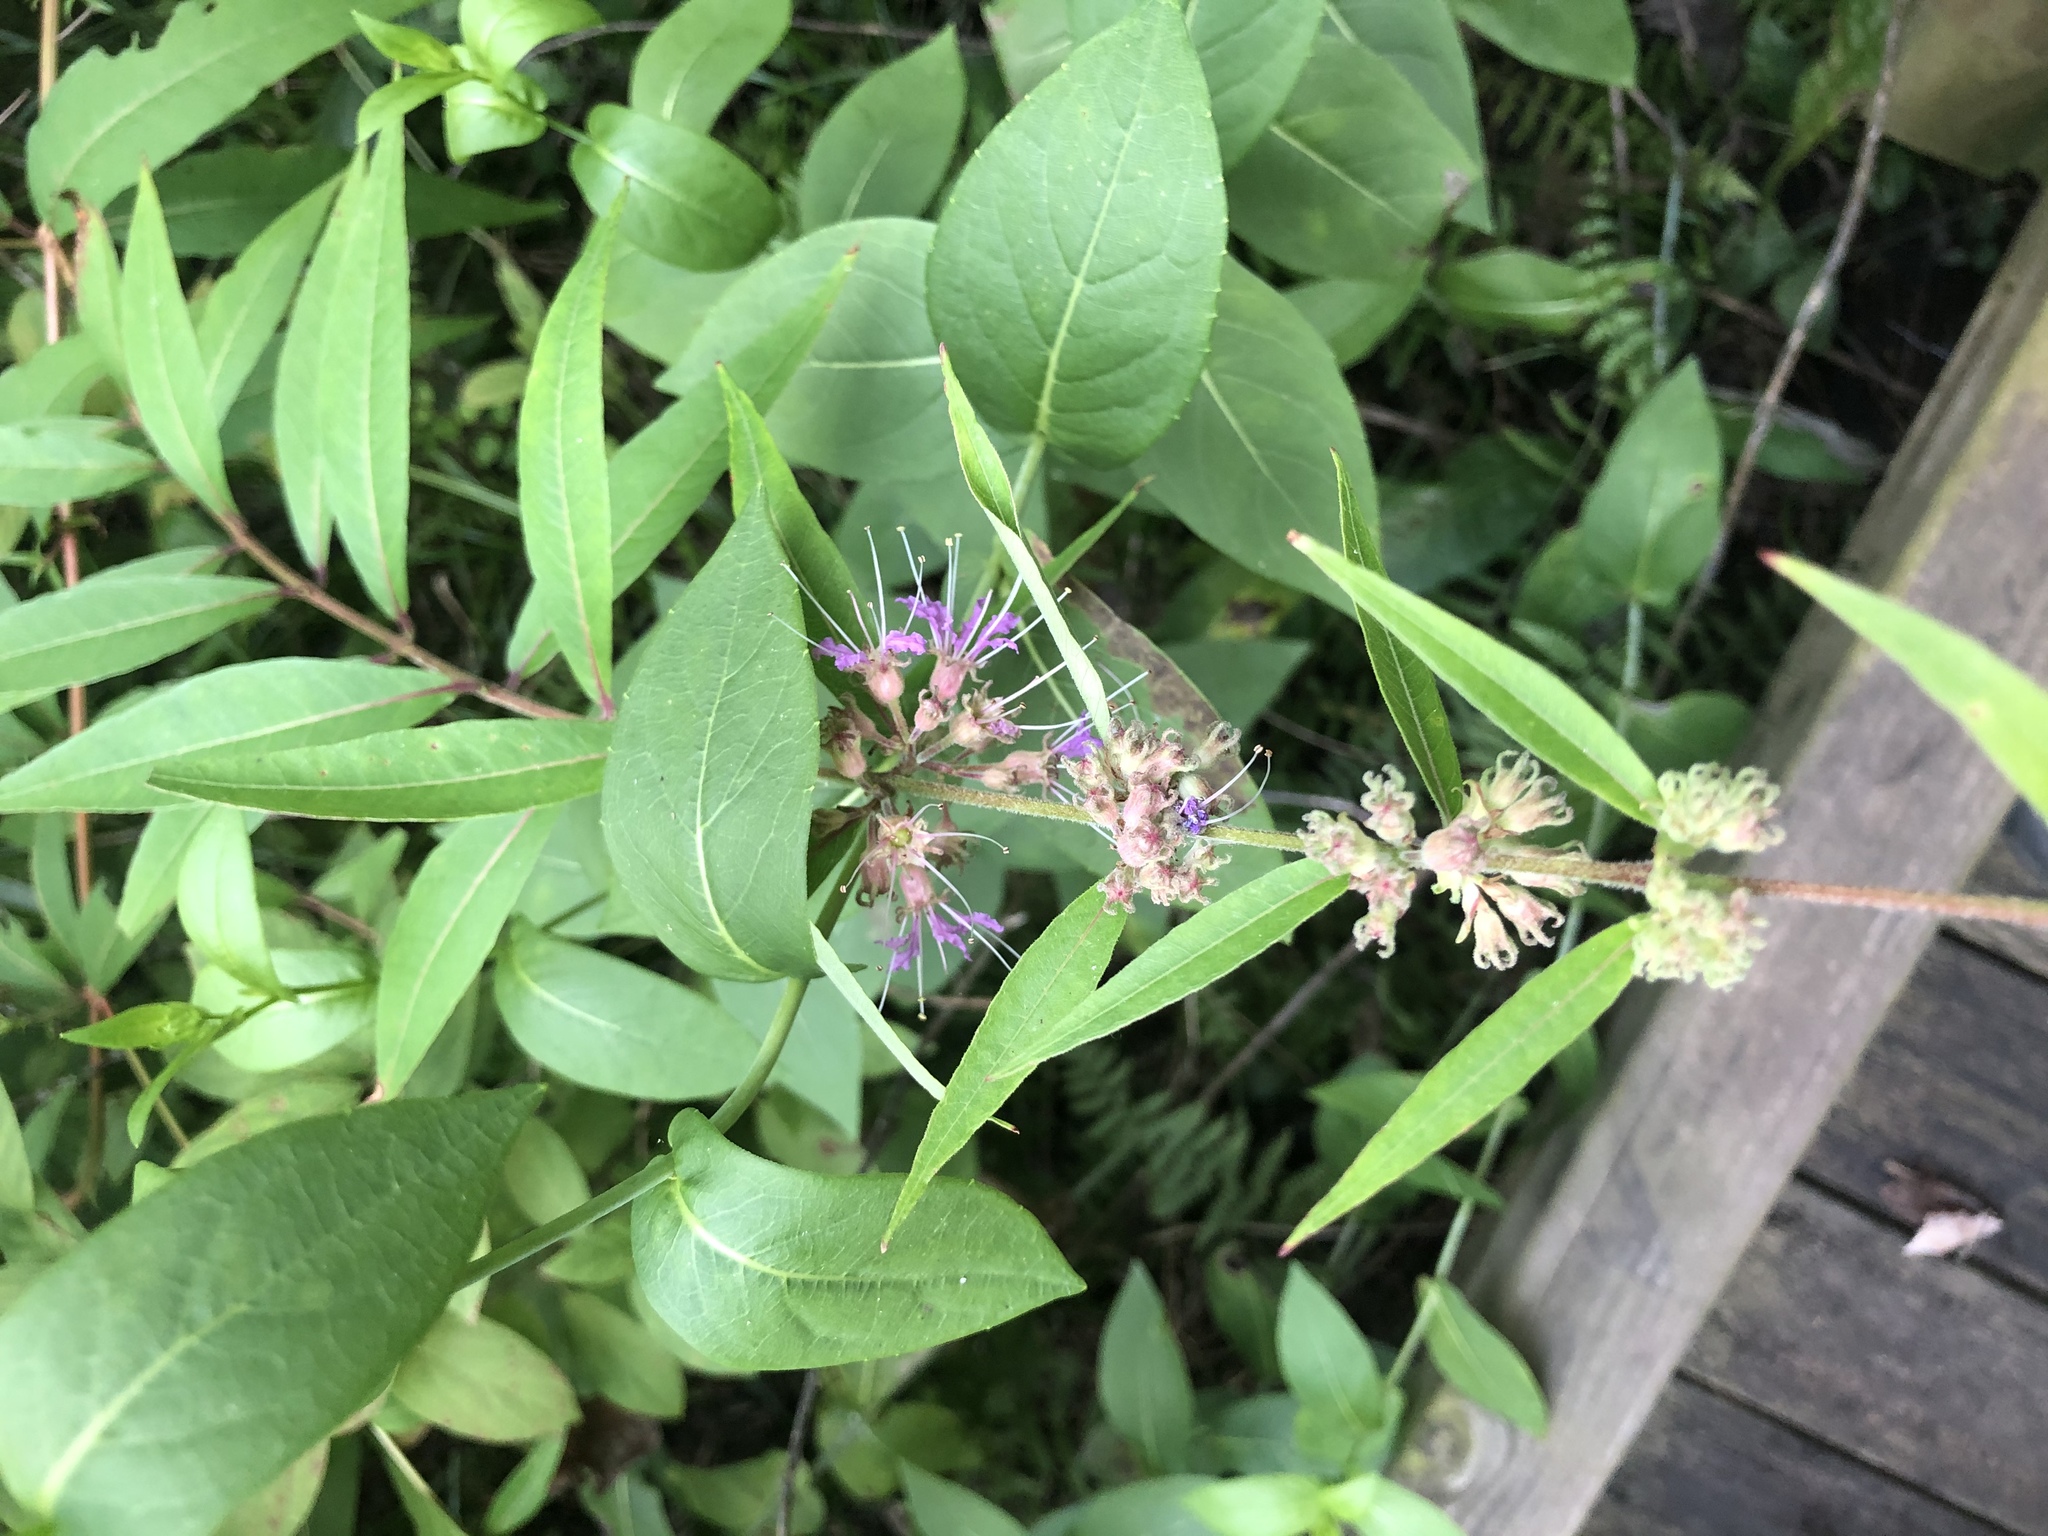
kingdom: Plantae
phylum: Tracheophyta
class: Magnoliopsida
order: Myrtales
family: Lythraceae
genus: Decodon
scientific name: Decodon verticillatus
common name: Hairy swamp loosestrife
